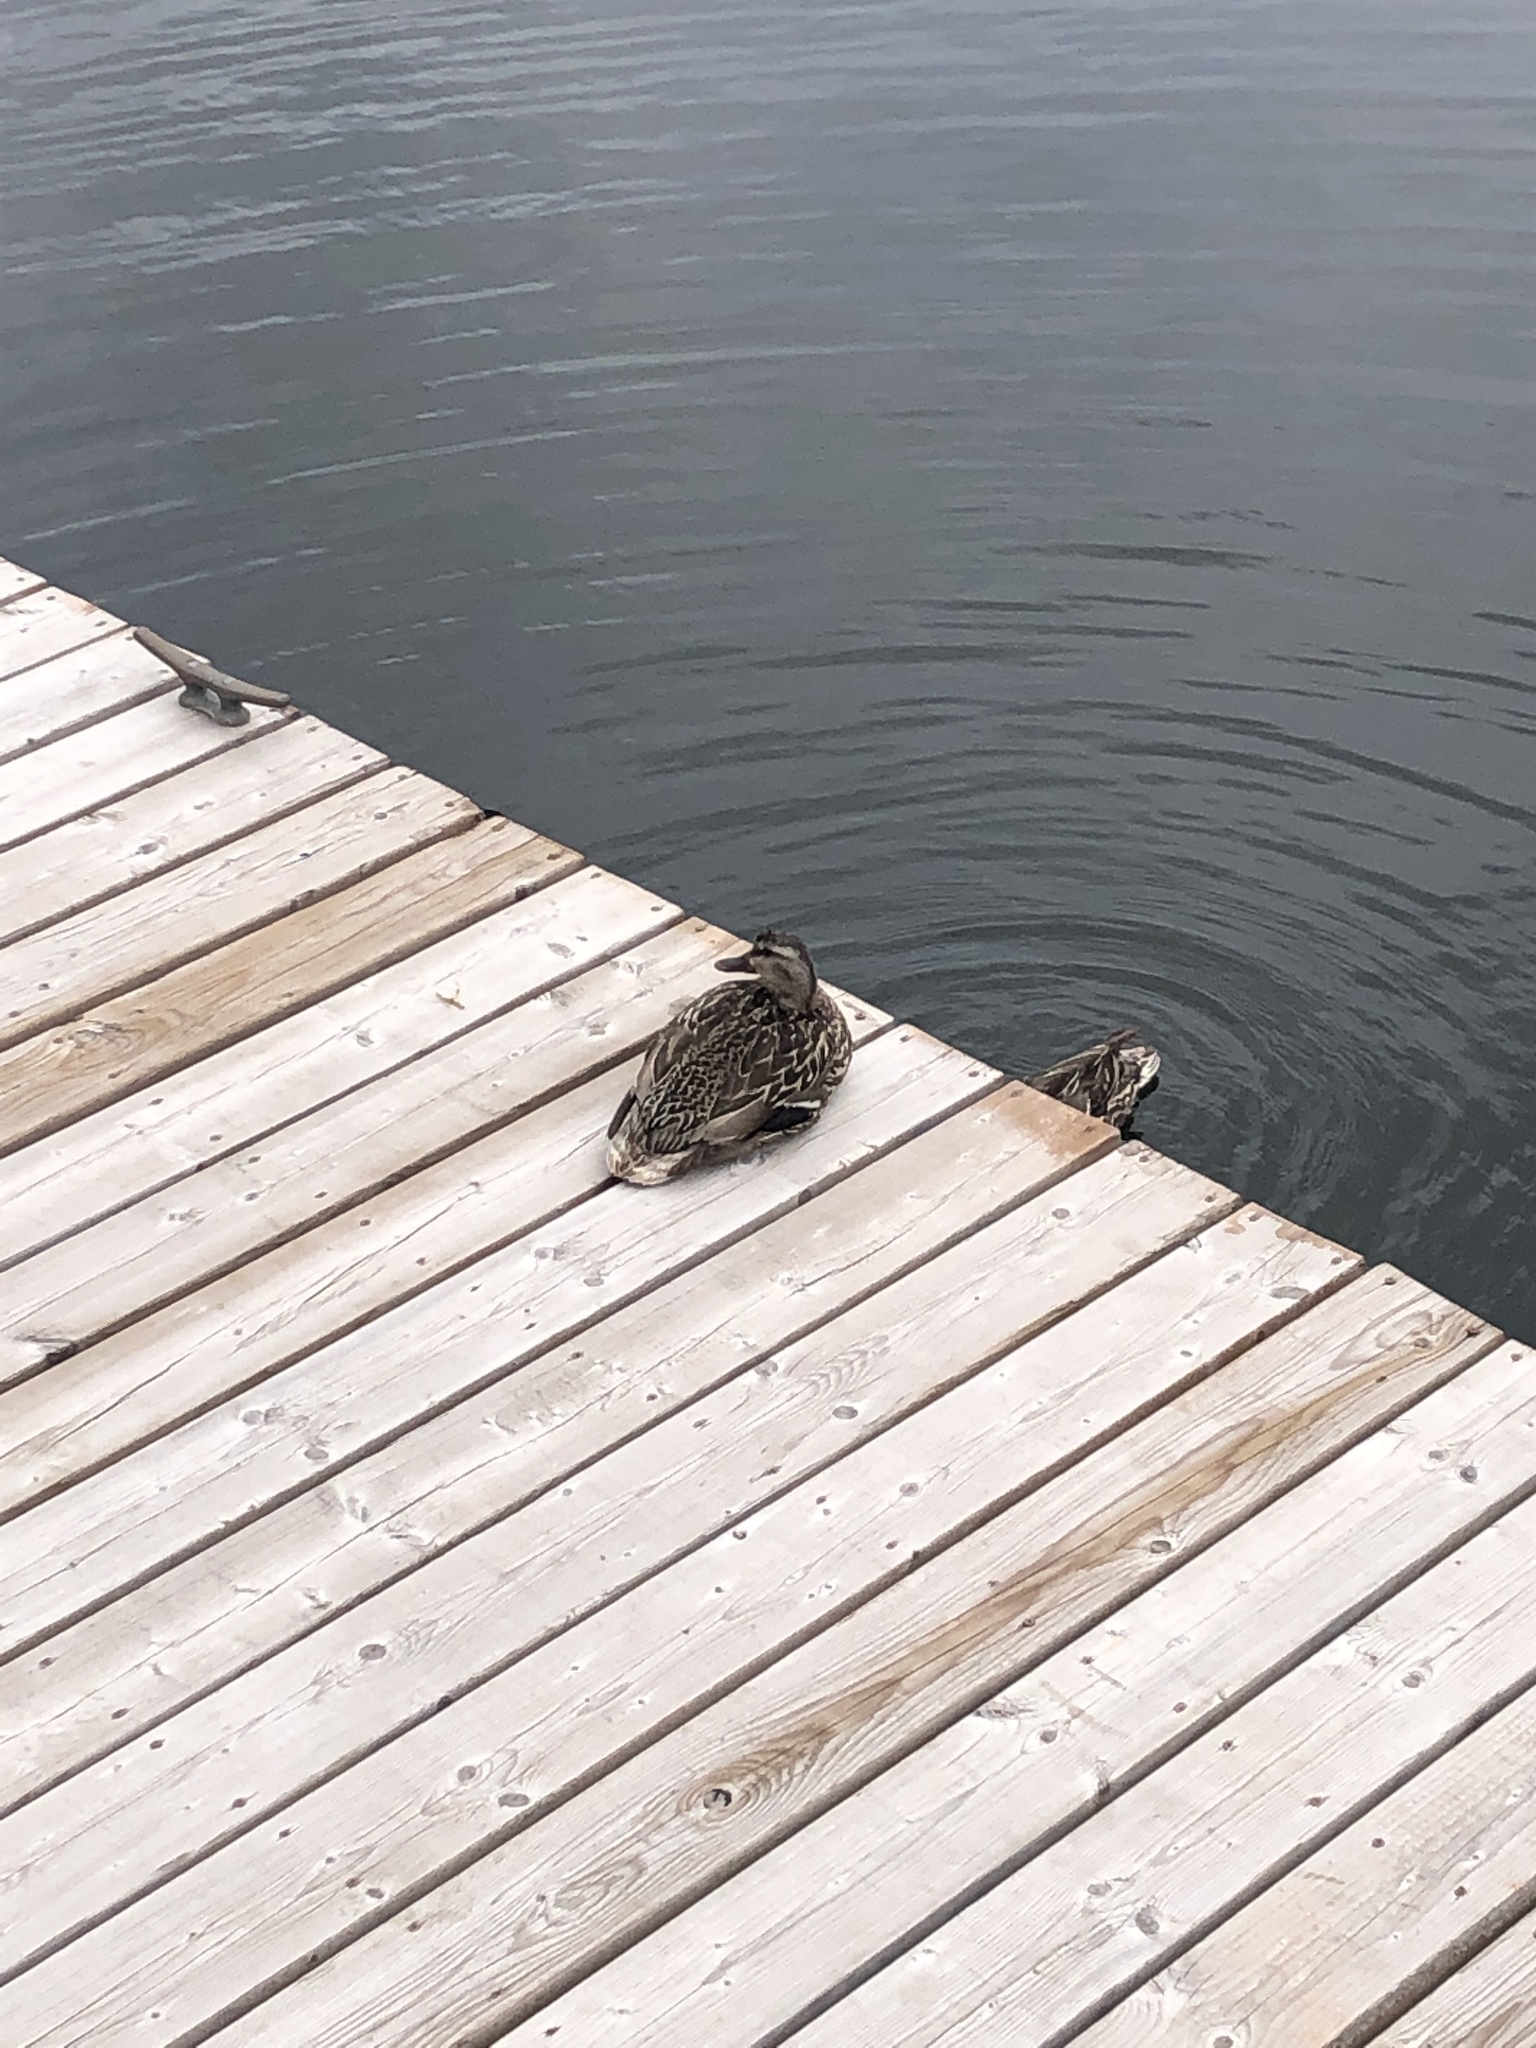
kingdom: Animalia
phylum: Chordata
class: Aves
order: Anseriformes
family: Anatidae
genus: Anas
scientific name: Anas platyrhynchos
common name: Mallard
